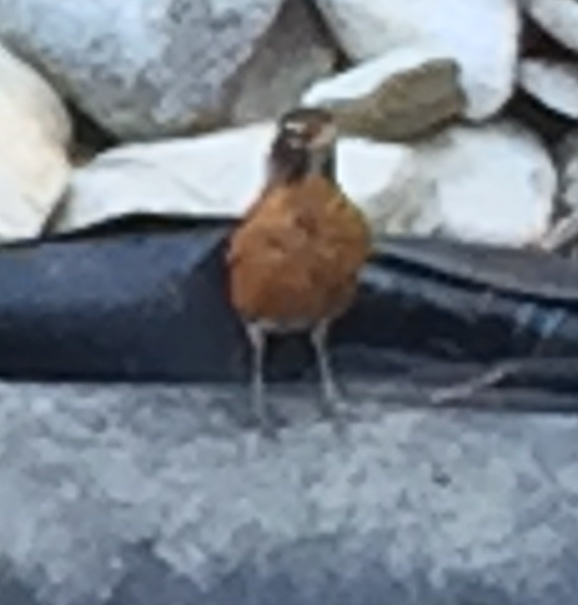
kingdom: Animalia
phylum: Chordata
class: Aves
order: Passeriformes
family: Turdidae
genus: Turdus
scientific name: Turdus migratorius
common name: American robin
